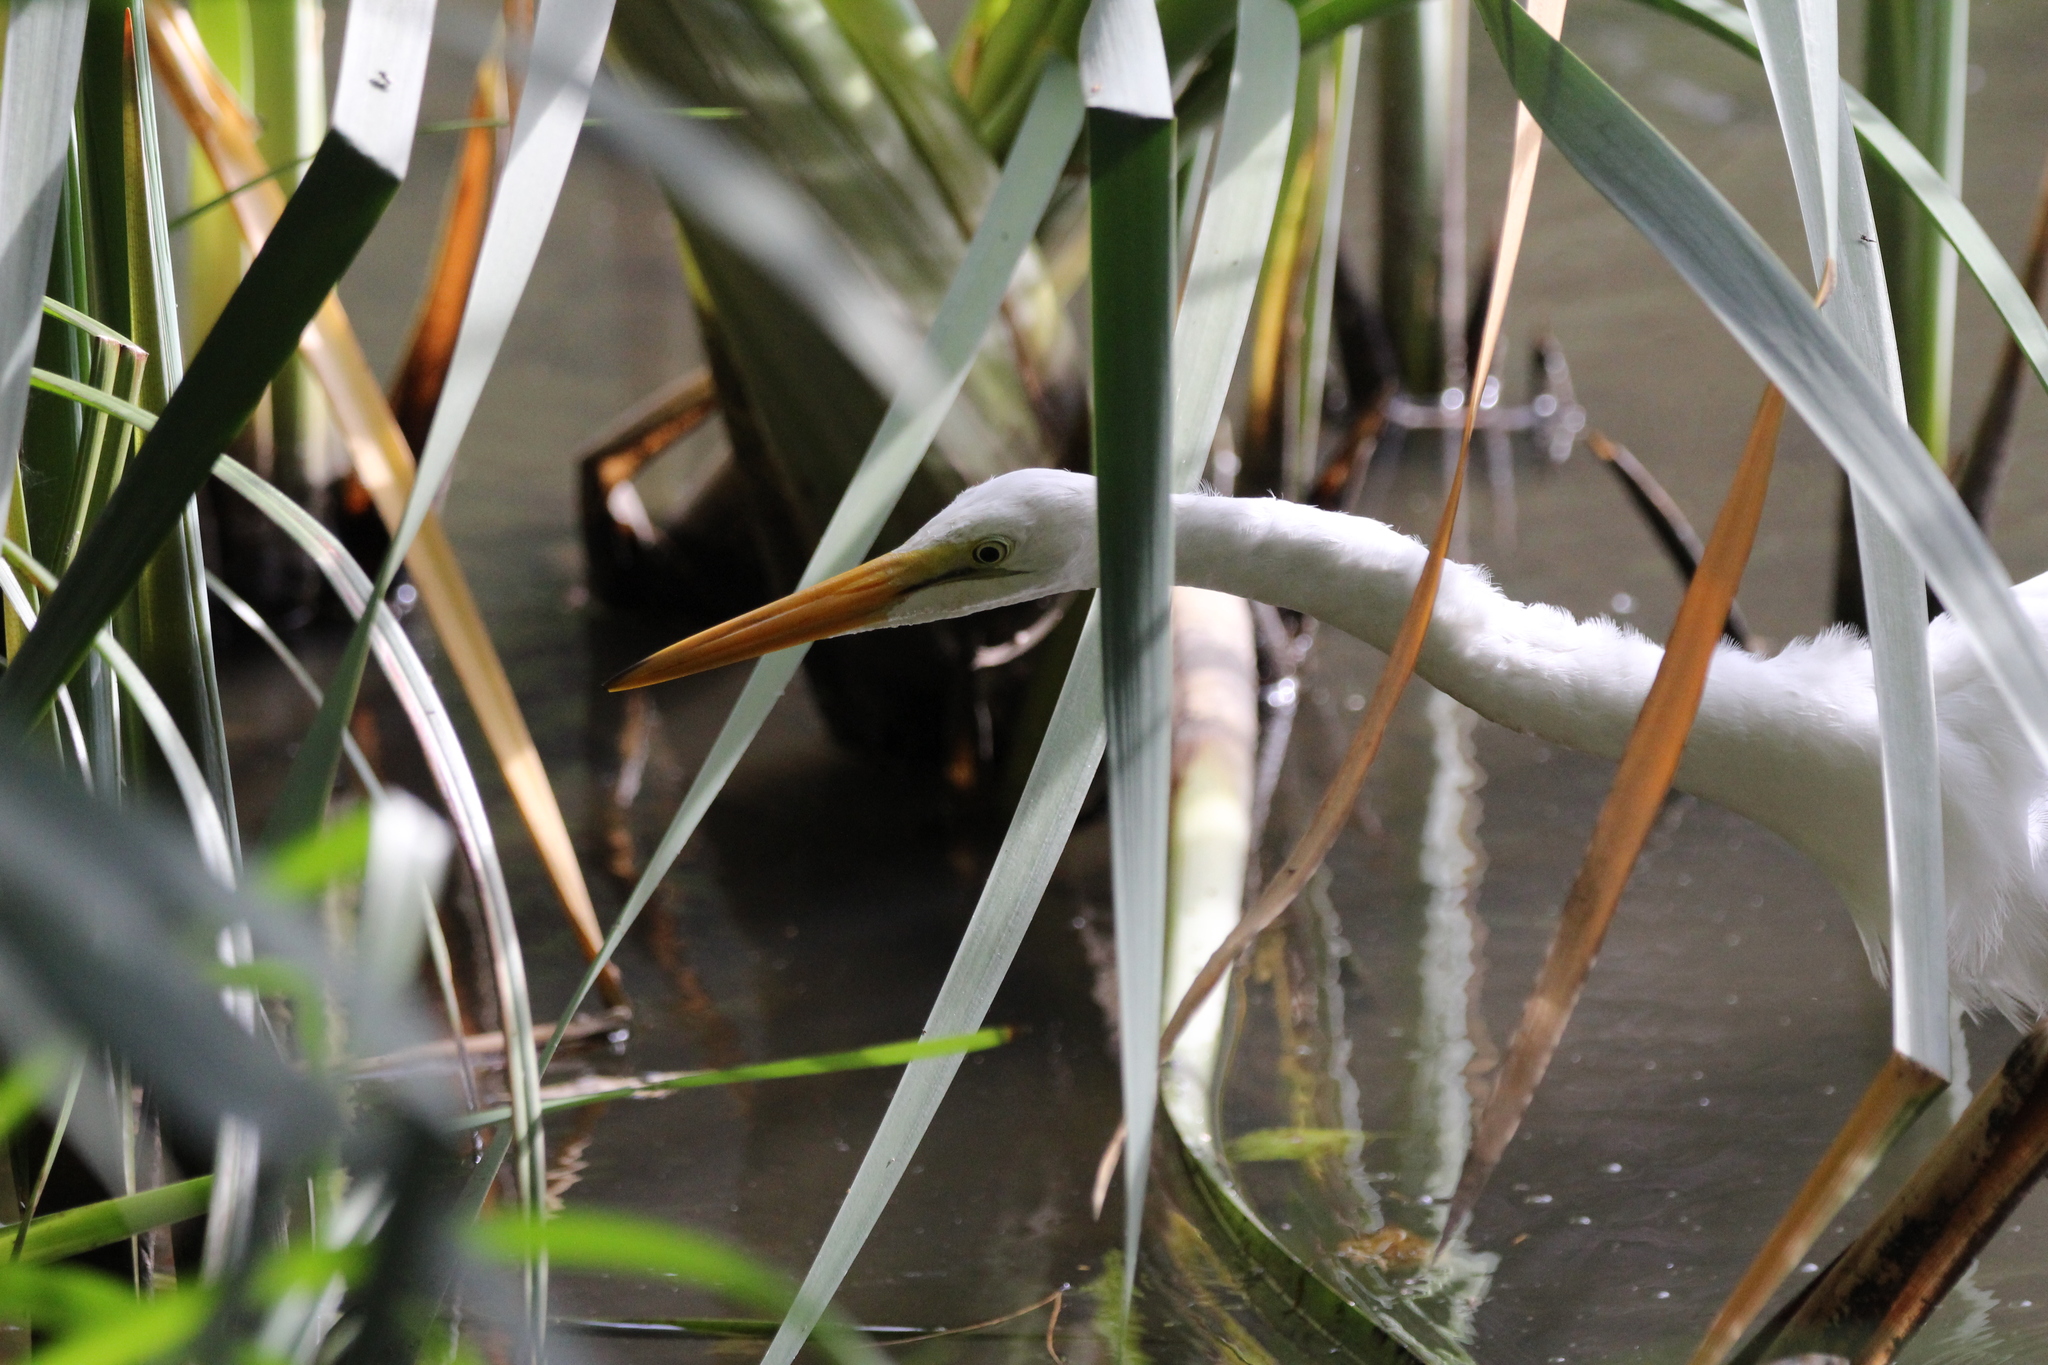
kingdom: Animalia
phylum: Chordata
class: Aves
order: Pelecaniformes
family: Ardeidae
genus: Ardea
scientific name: Ardea alba
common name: Great egret
